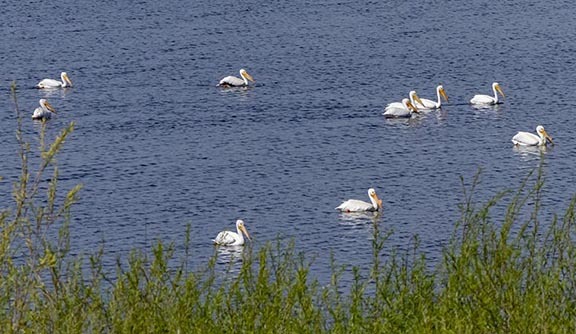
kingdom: Animalia
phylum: Chordata
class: Aves
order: Pelecaniformes
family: Pelecanidae
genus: Pelecanus
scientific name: Pelecanus erythrorhynchos
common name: American white pelican
